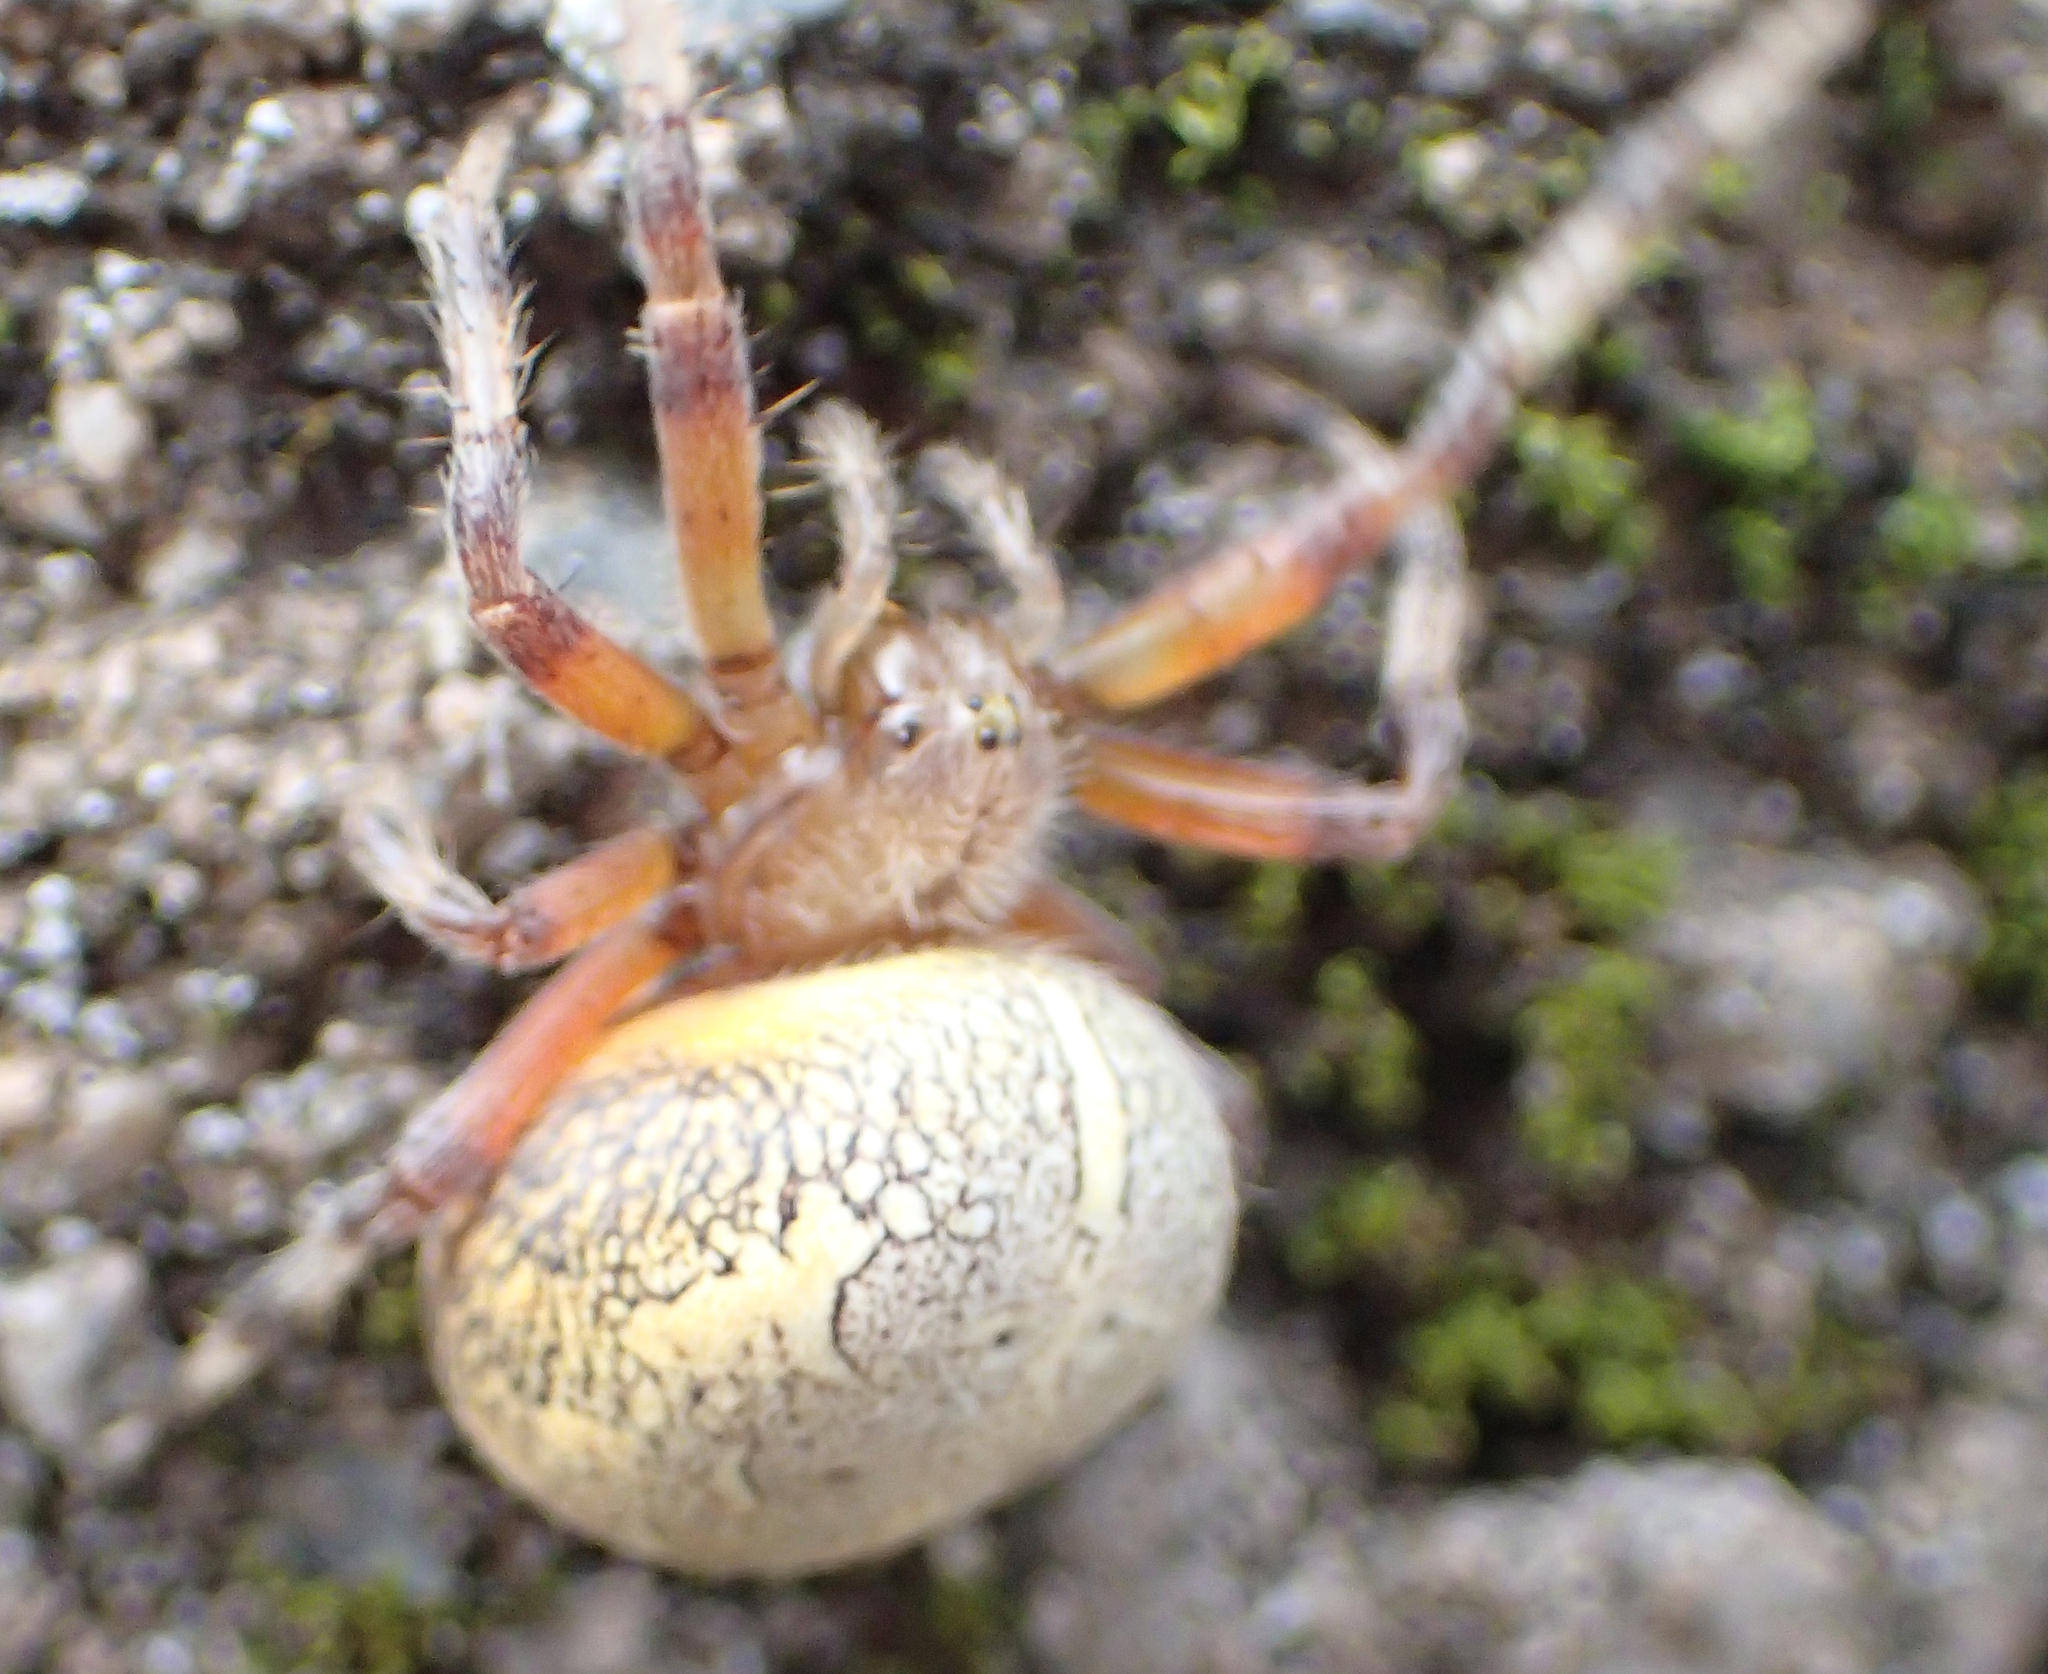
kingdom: Animalia
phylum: Arthropoda
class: Arachnida
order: Araneae
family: Araneidae
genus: Araneus
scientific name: Araneus marmoreus
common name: Marbled orbweaver
